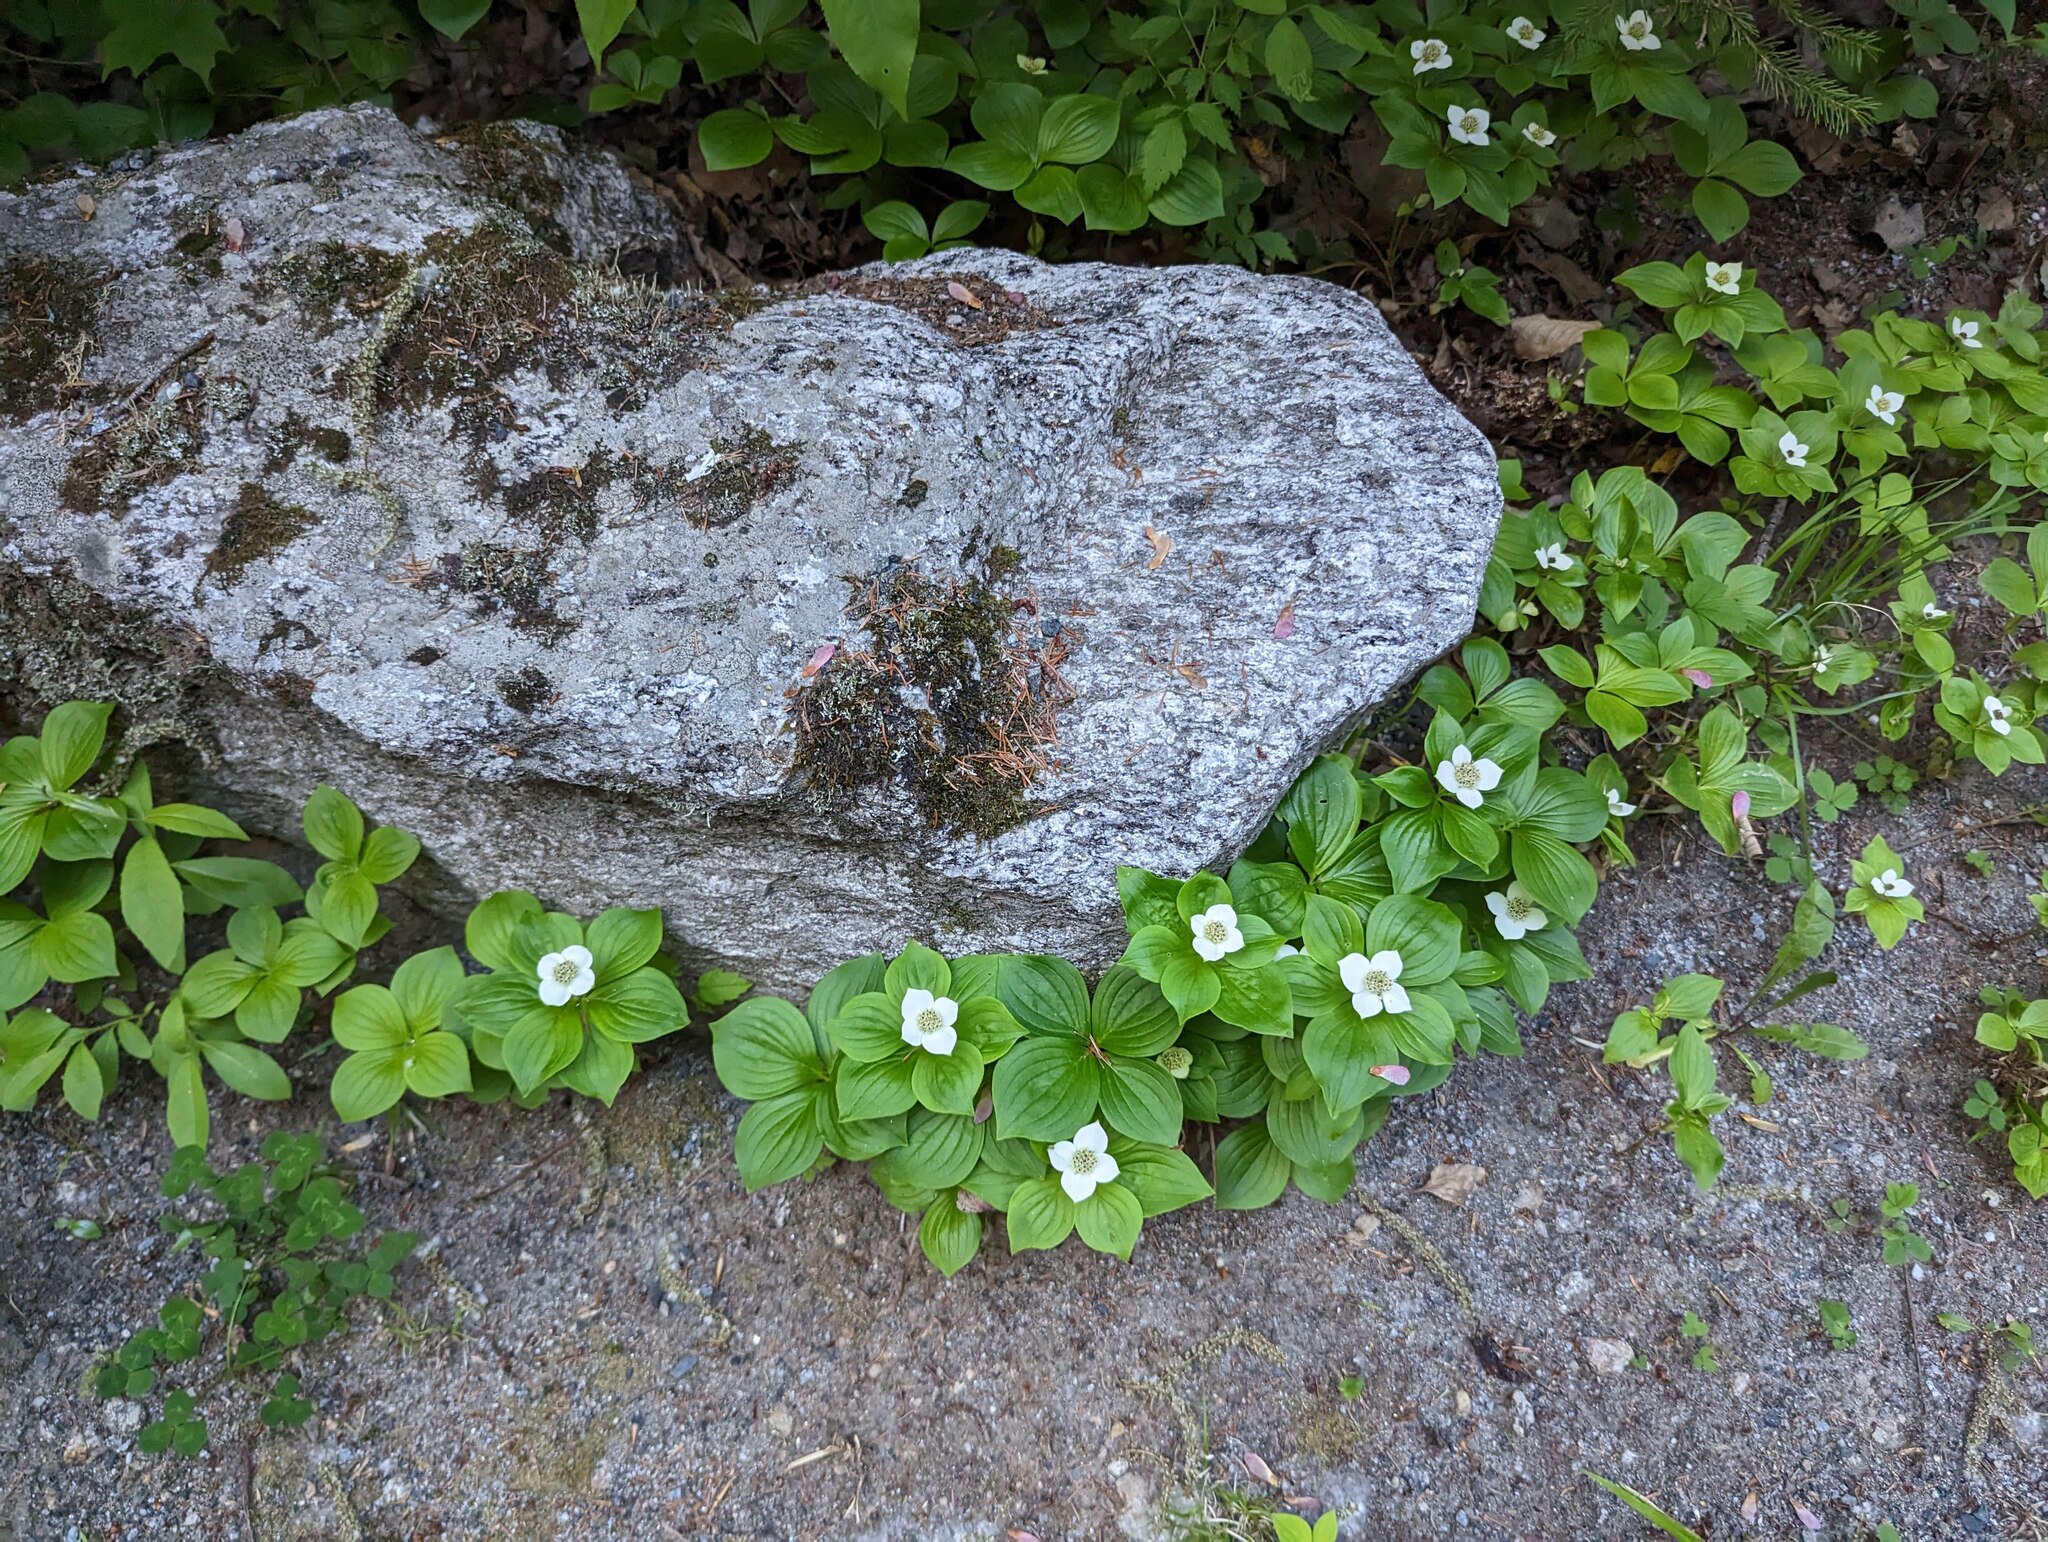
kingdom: Plantae
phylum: Tracheophyta
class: Magnoliopsida
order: Cornales
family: Cornaceae
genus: Cornus
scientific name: Cornus canadensis
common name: Creeping dogwood
